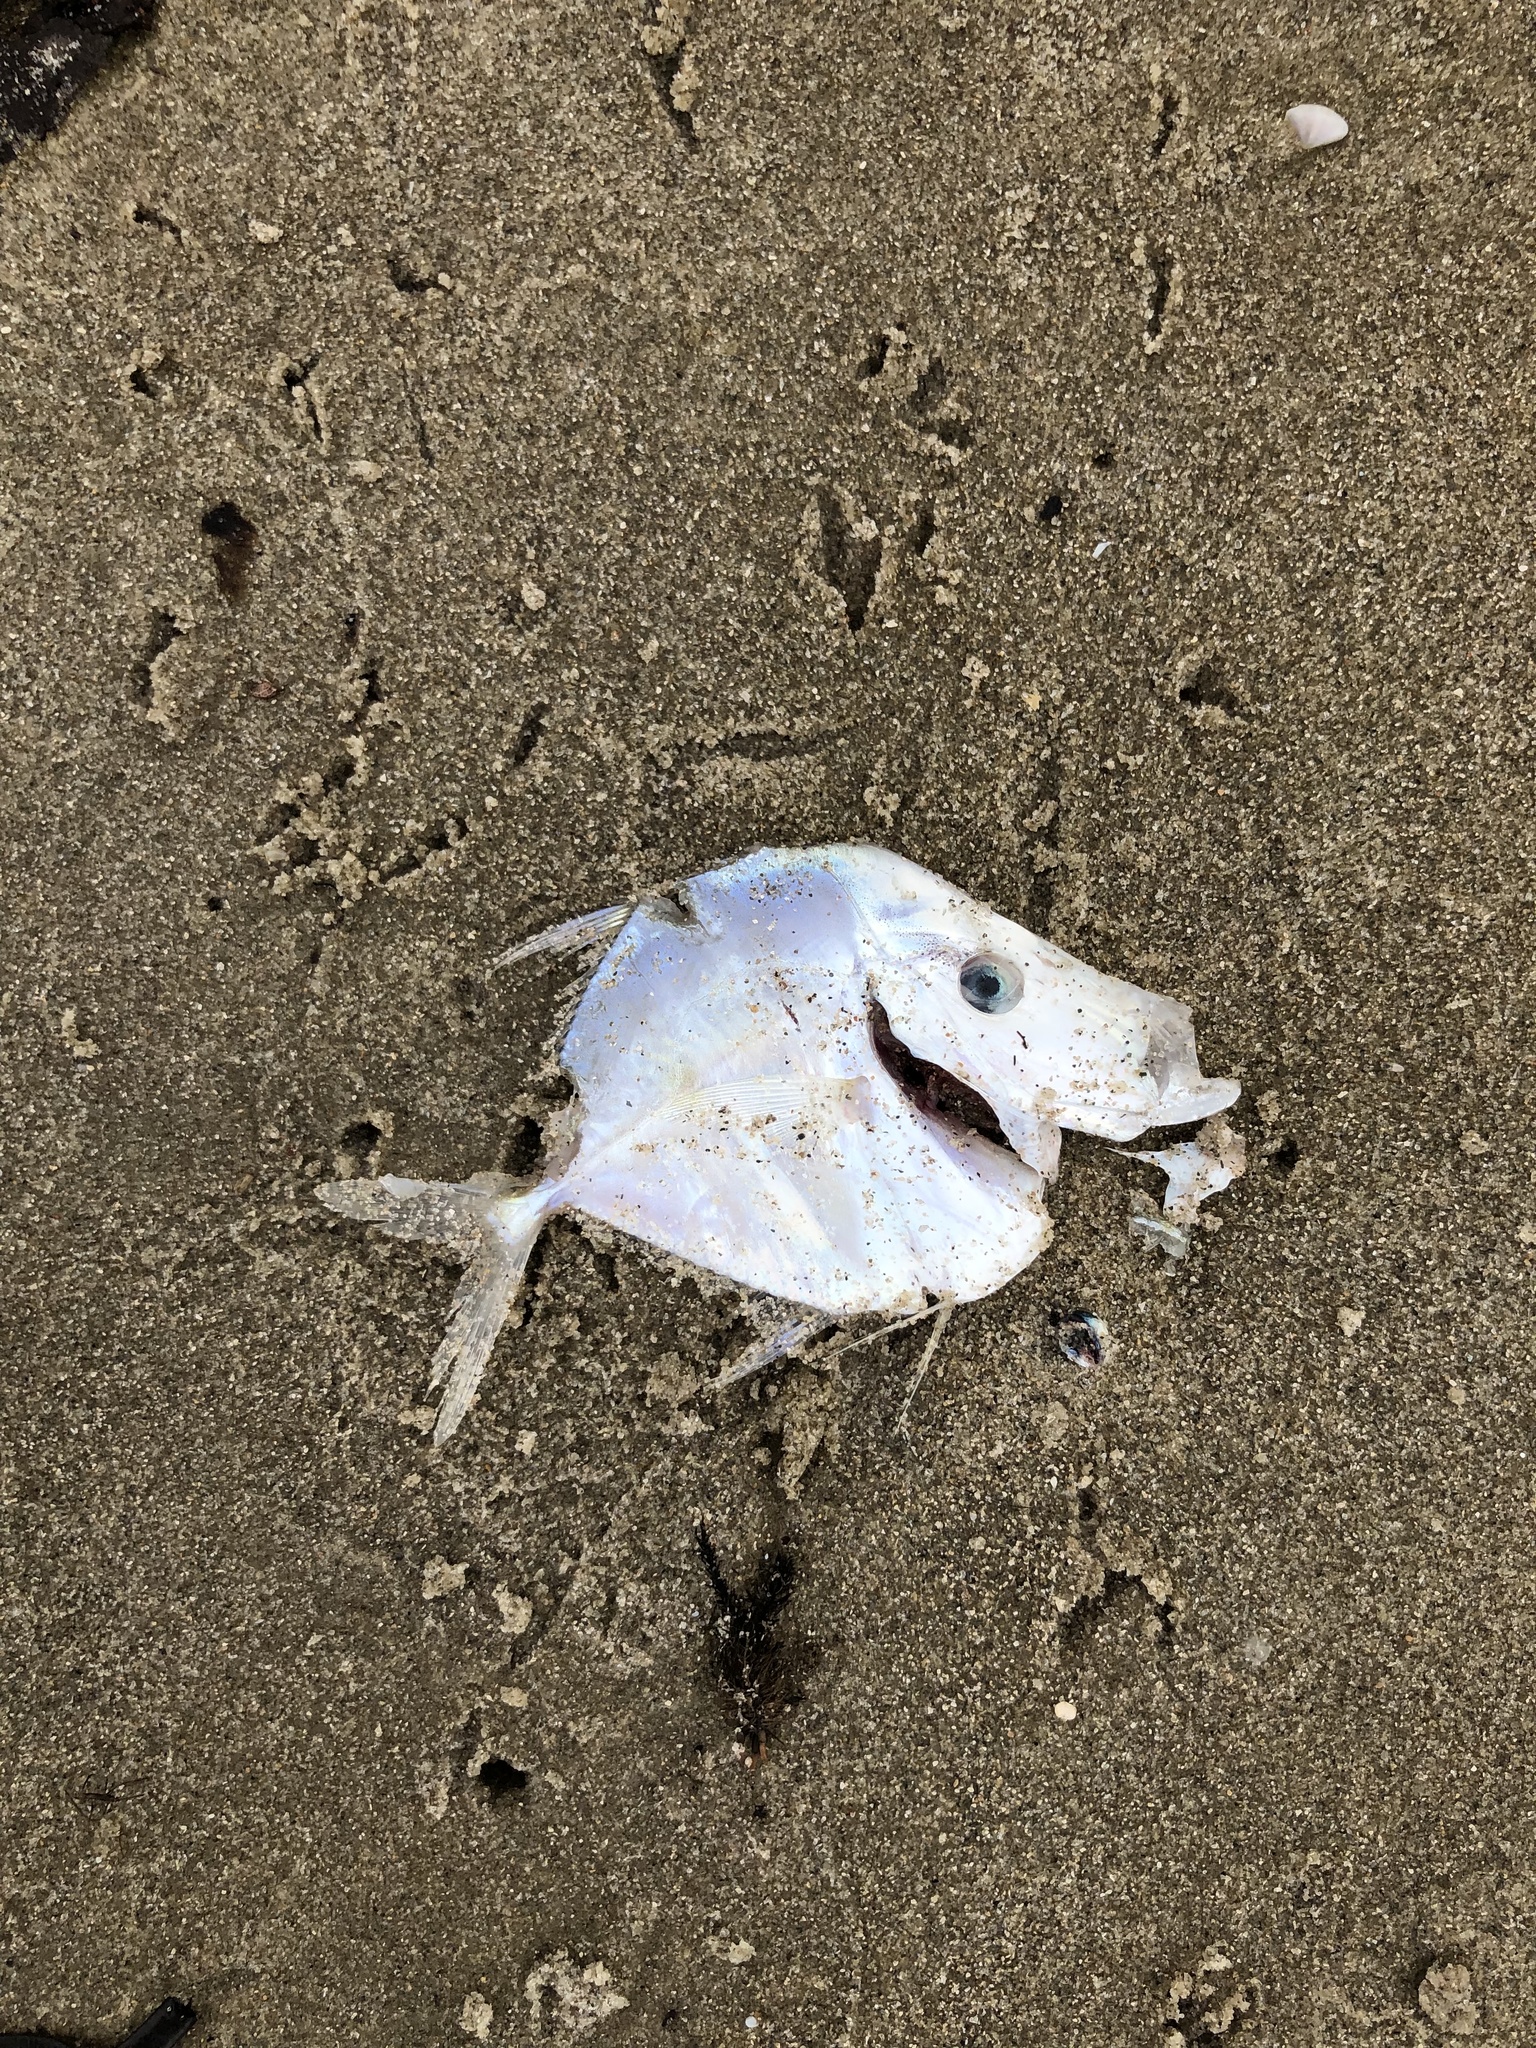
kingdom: Animalia
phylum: Chordata
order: Perciformes
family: Carangidae
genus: Selene
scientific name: Selene vomer
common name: Lookdown
